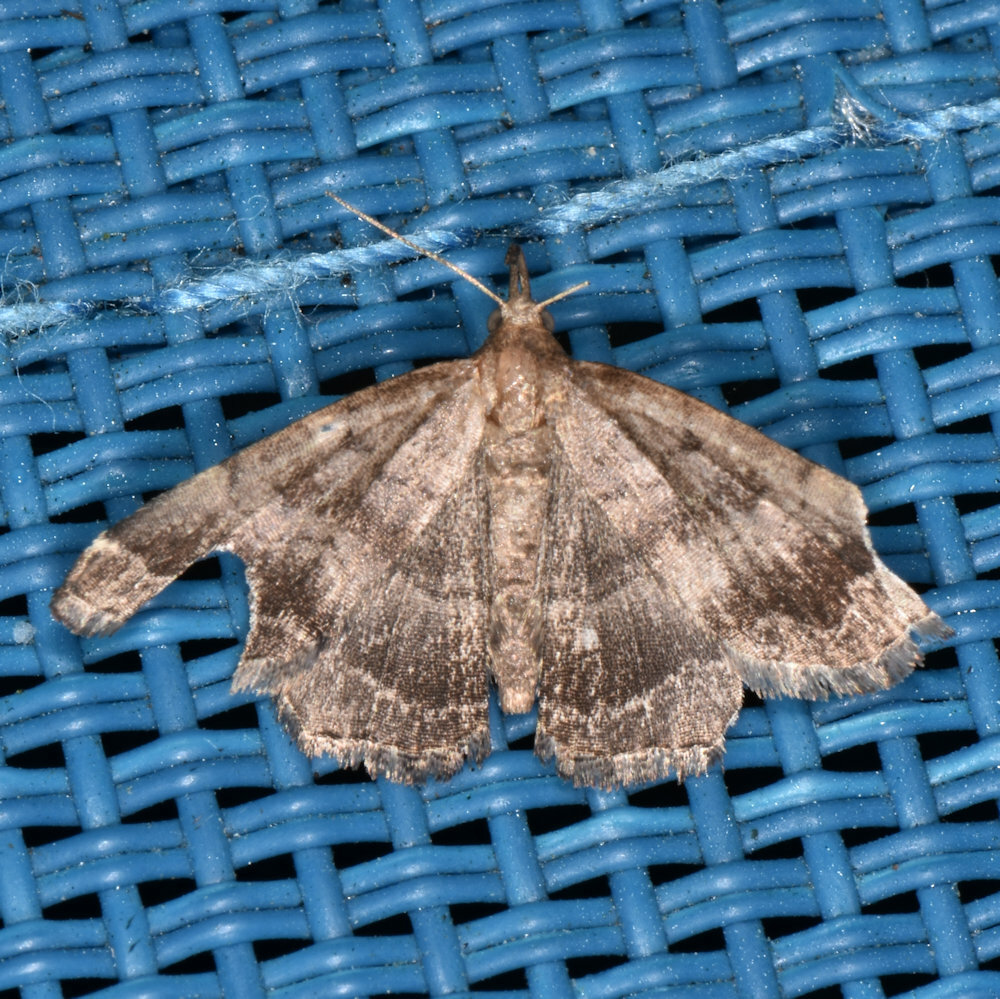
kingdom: Animalia
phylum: Arthropoda
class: Insecta
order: Lepidoptera
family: Erebidae
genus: Phalaenostola
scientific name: Phalaenostola larentioides
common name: Black-banded owlet
